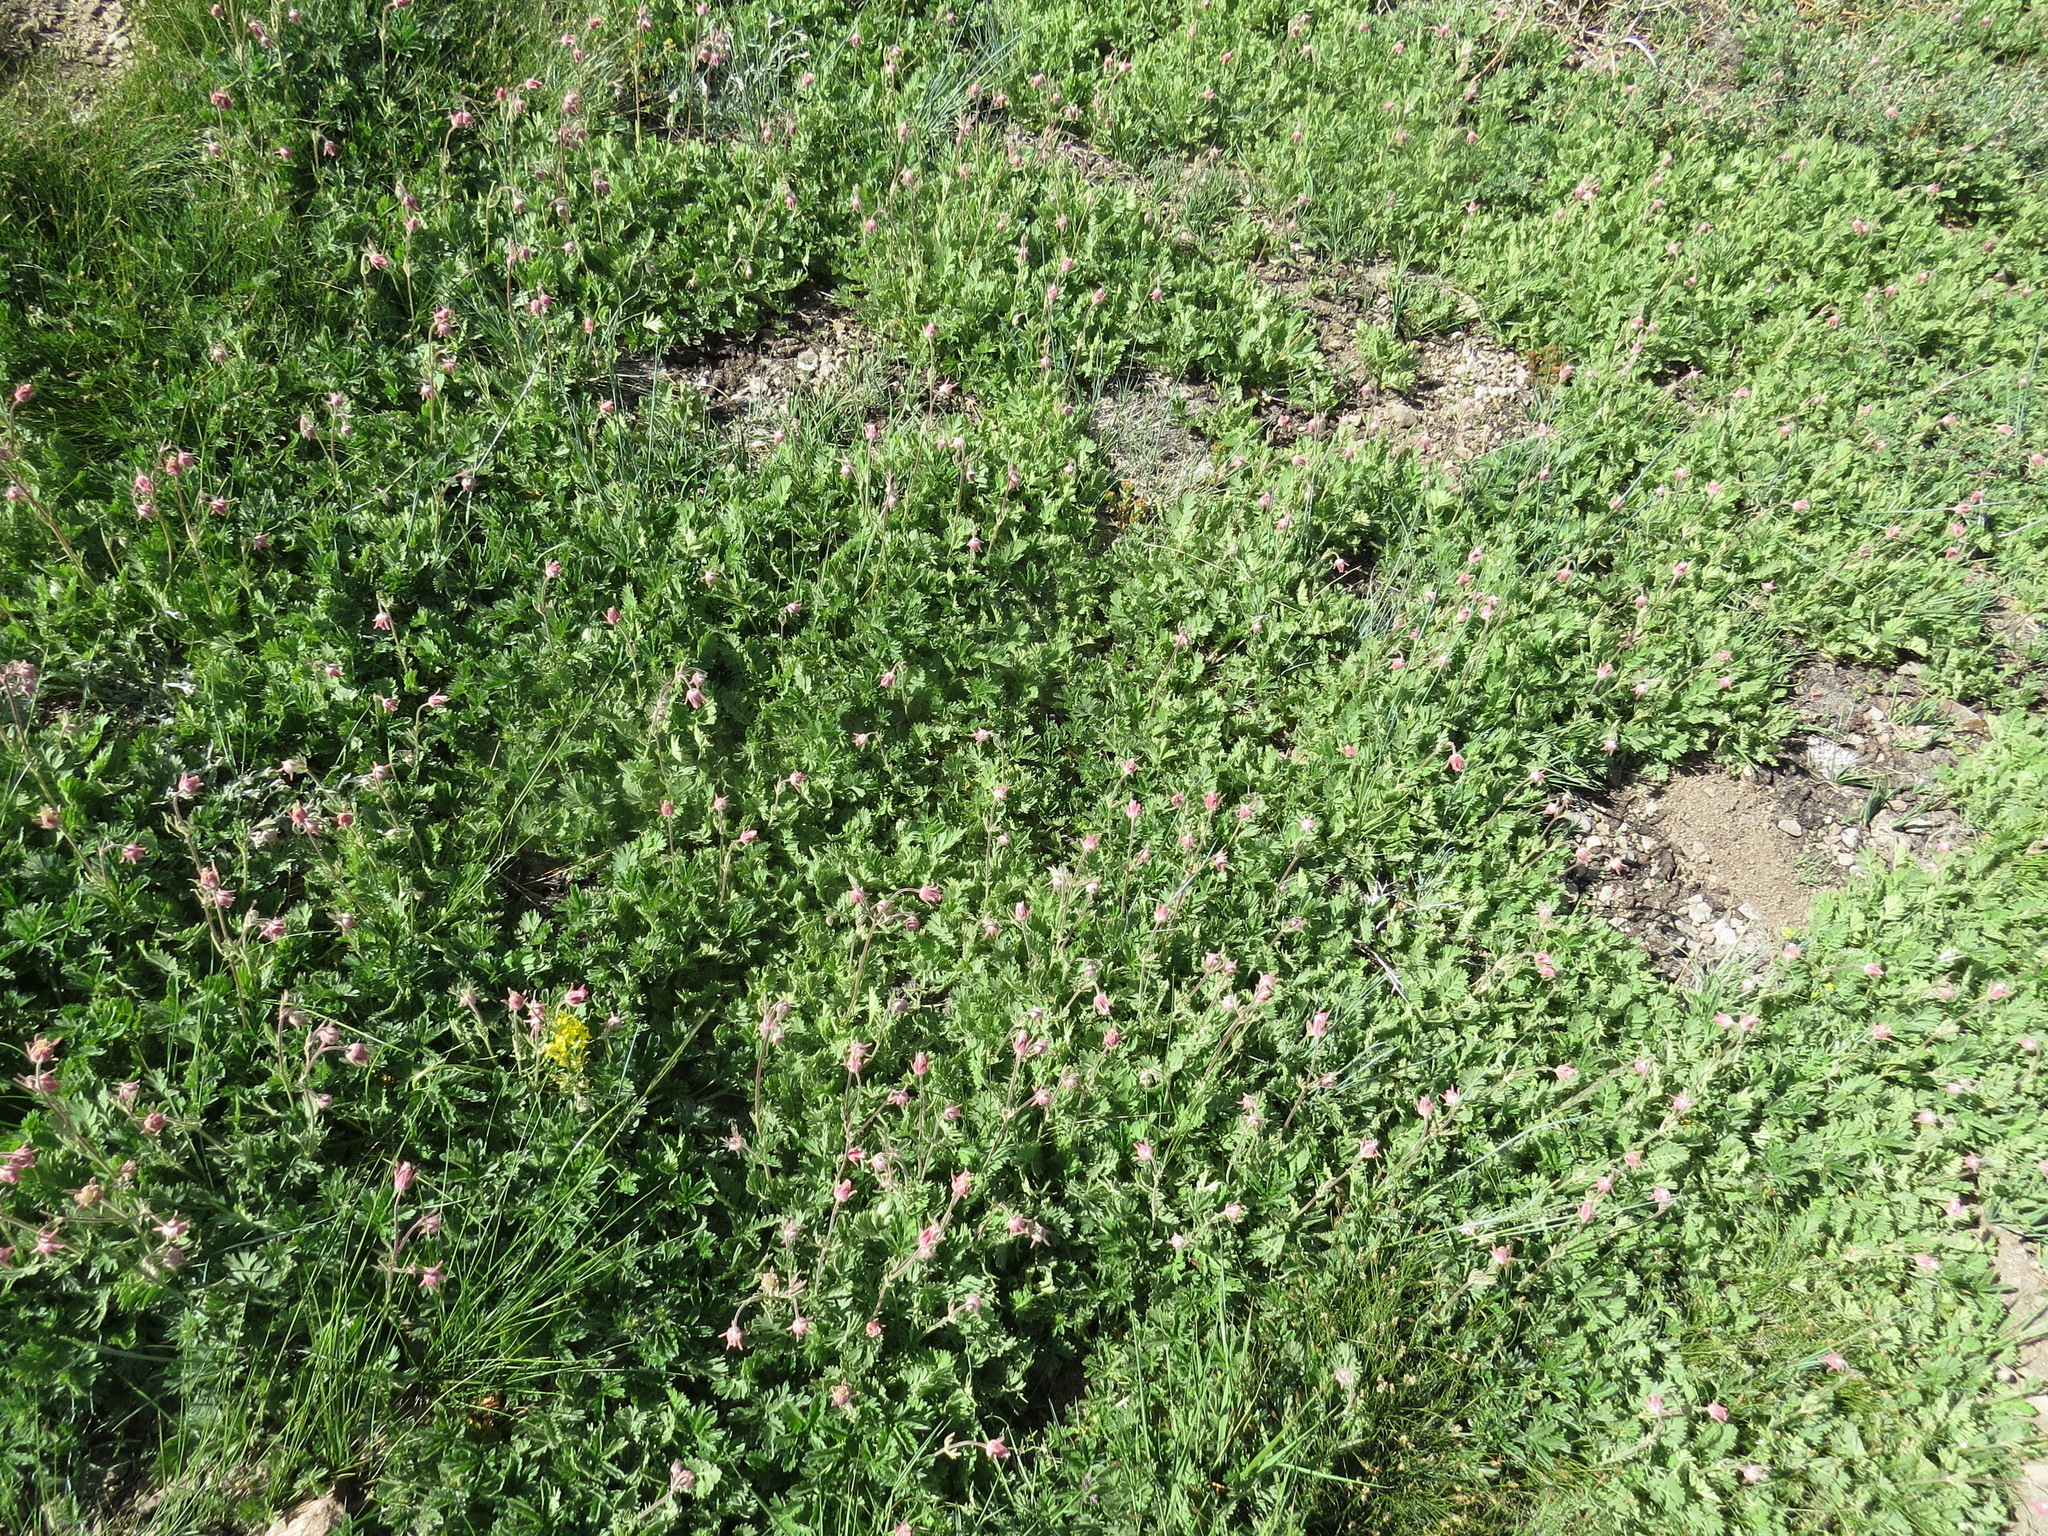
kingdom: Plantae
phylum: Tracheophyta
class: Magnoliopsida
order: Rosales
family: Rosaceae
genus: Geum
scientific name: Geum triflorum
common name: Old man's whiskers
